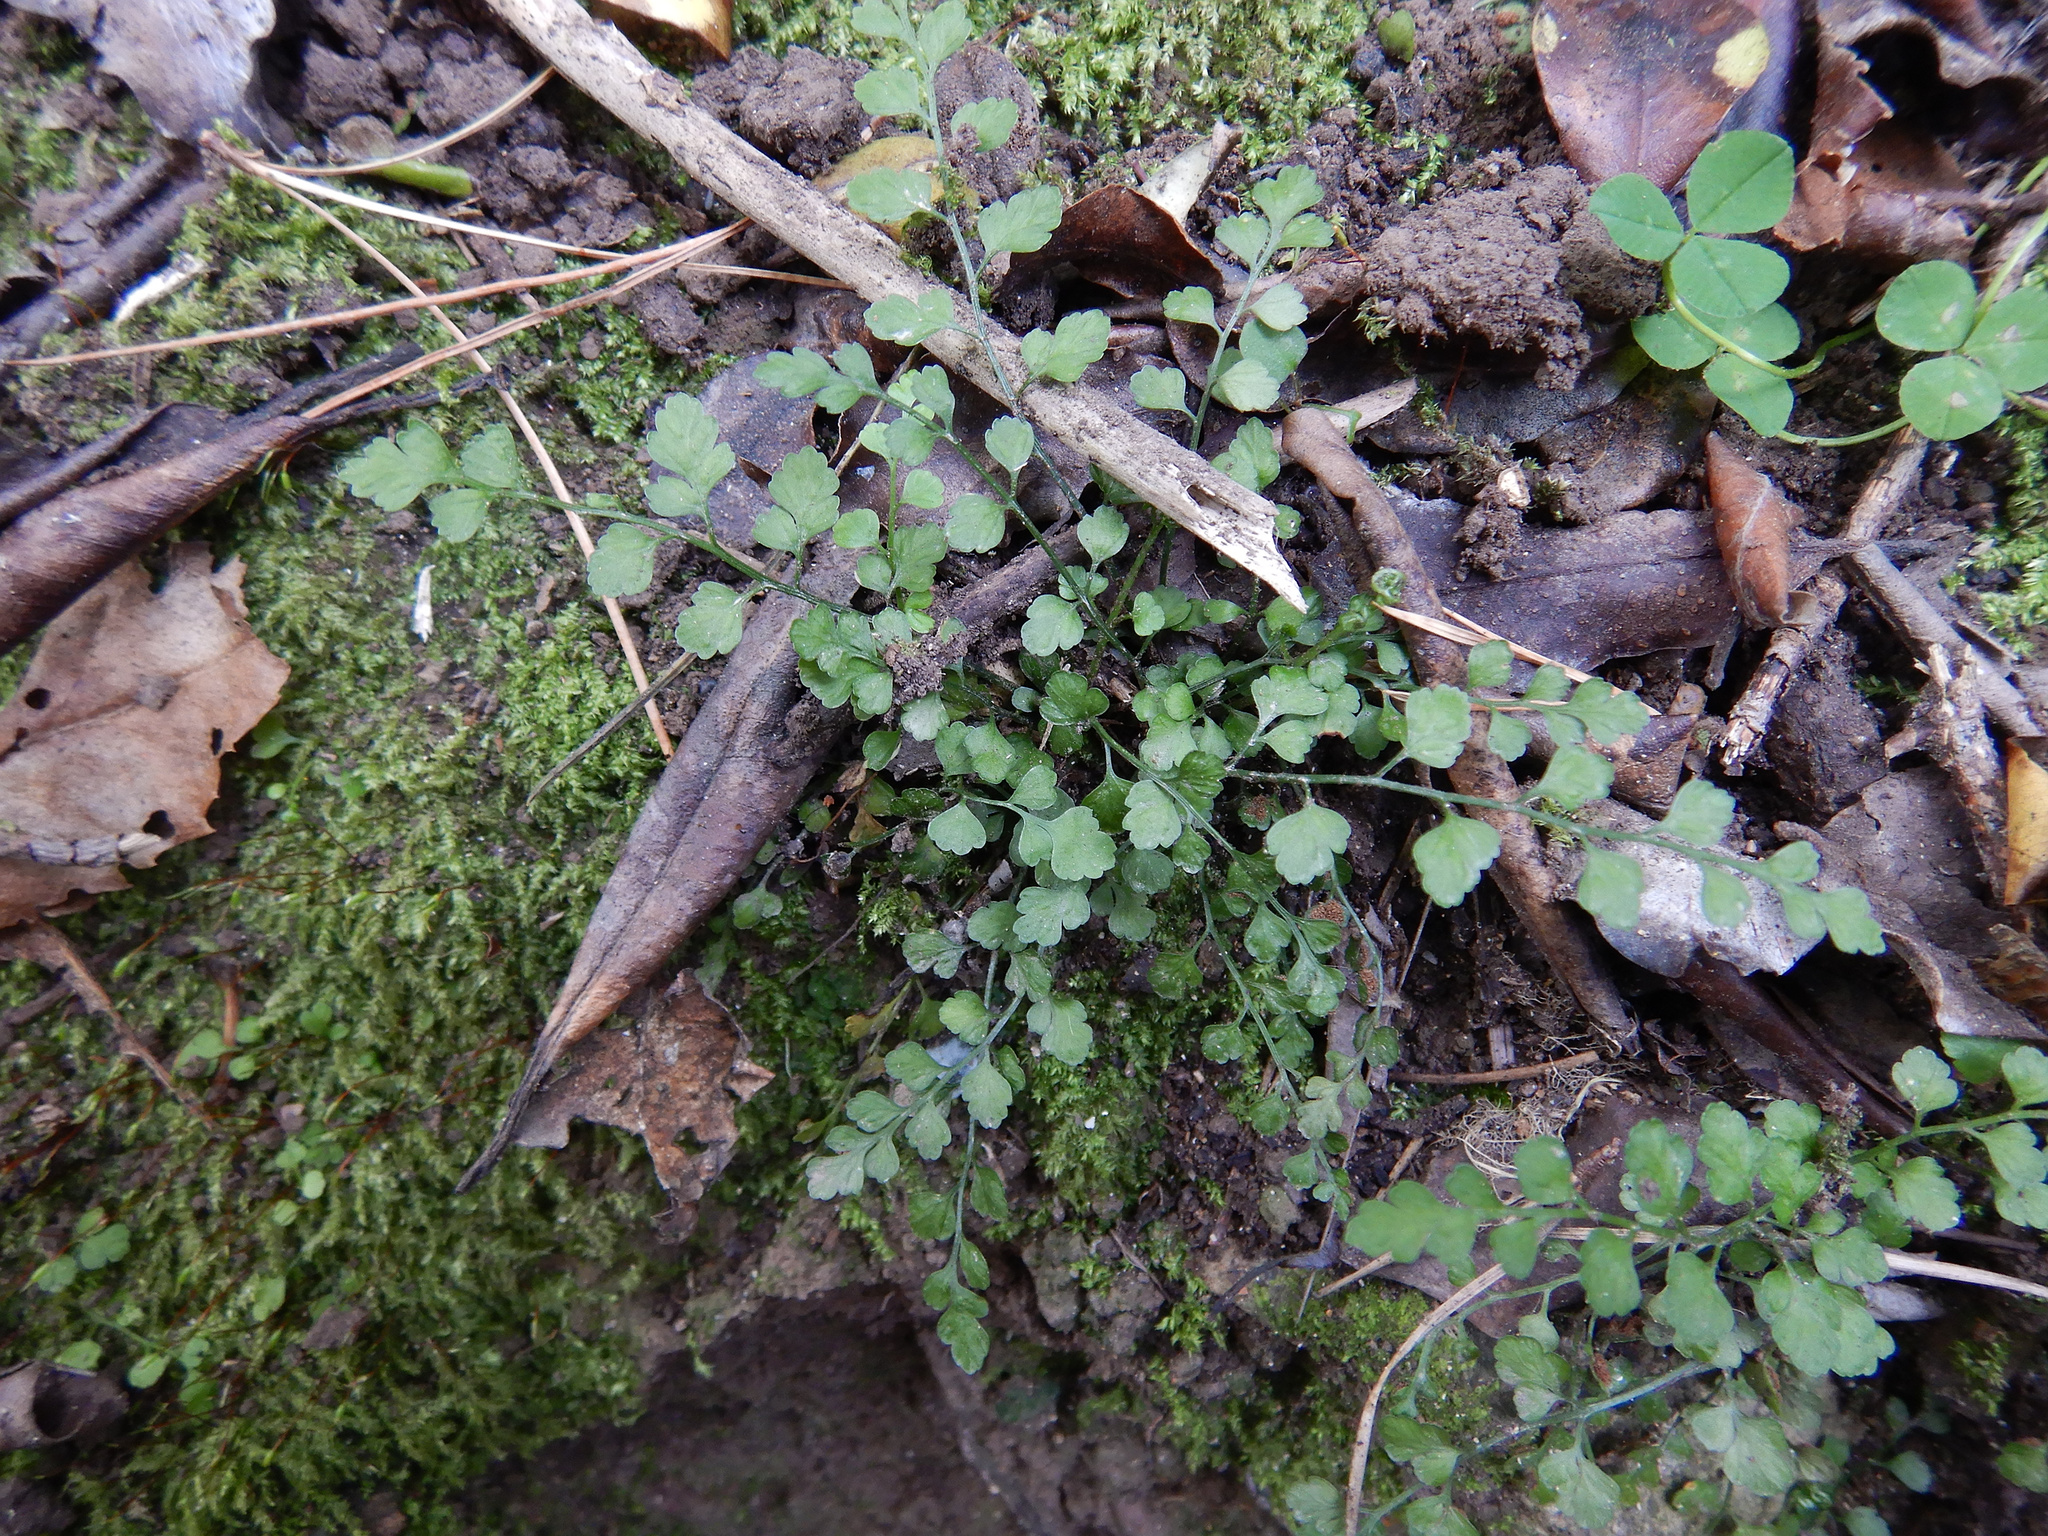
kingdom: Plantae
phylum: Tracheophyta
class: Polypodiopsida
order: Polypodiales
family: Aspleniaceae
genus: Asplenium
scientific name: Asplenium hookerianum
